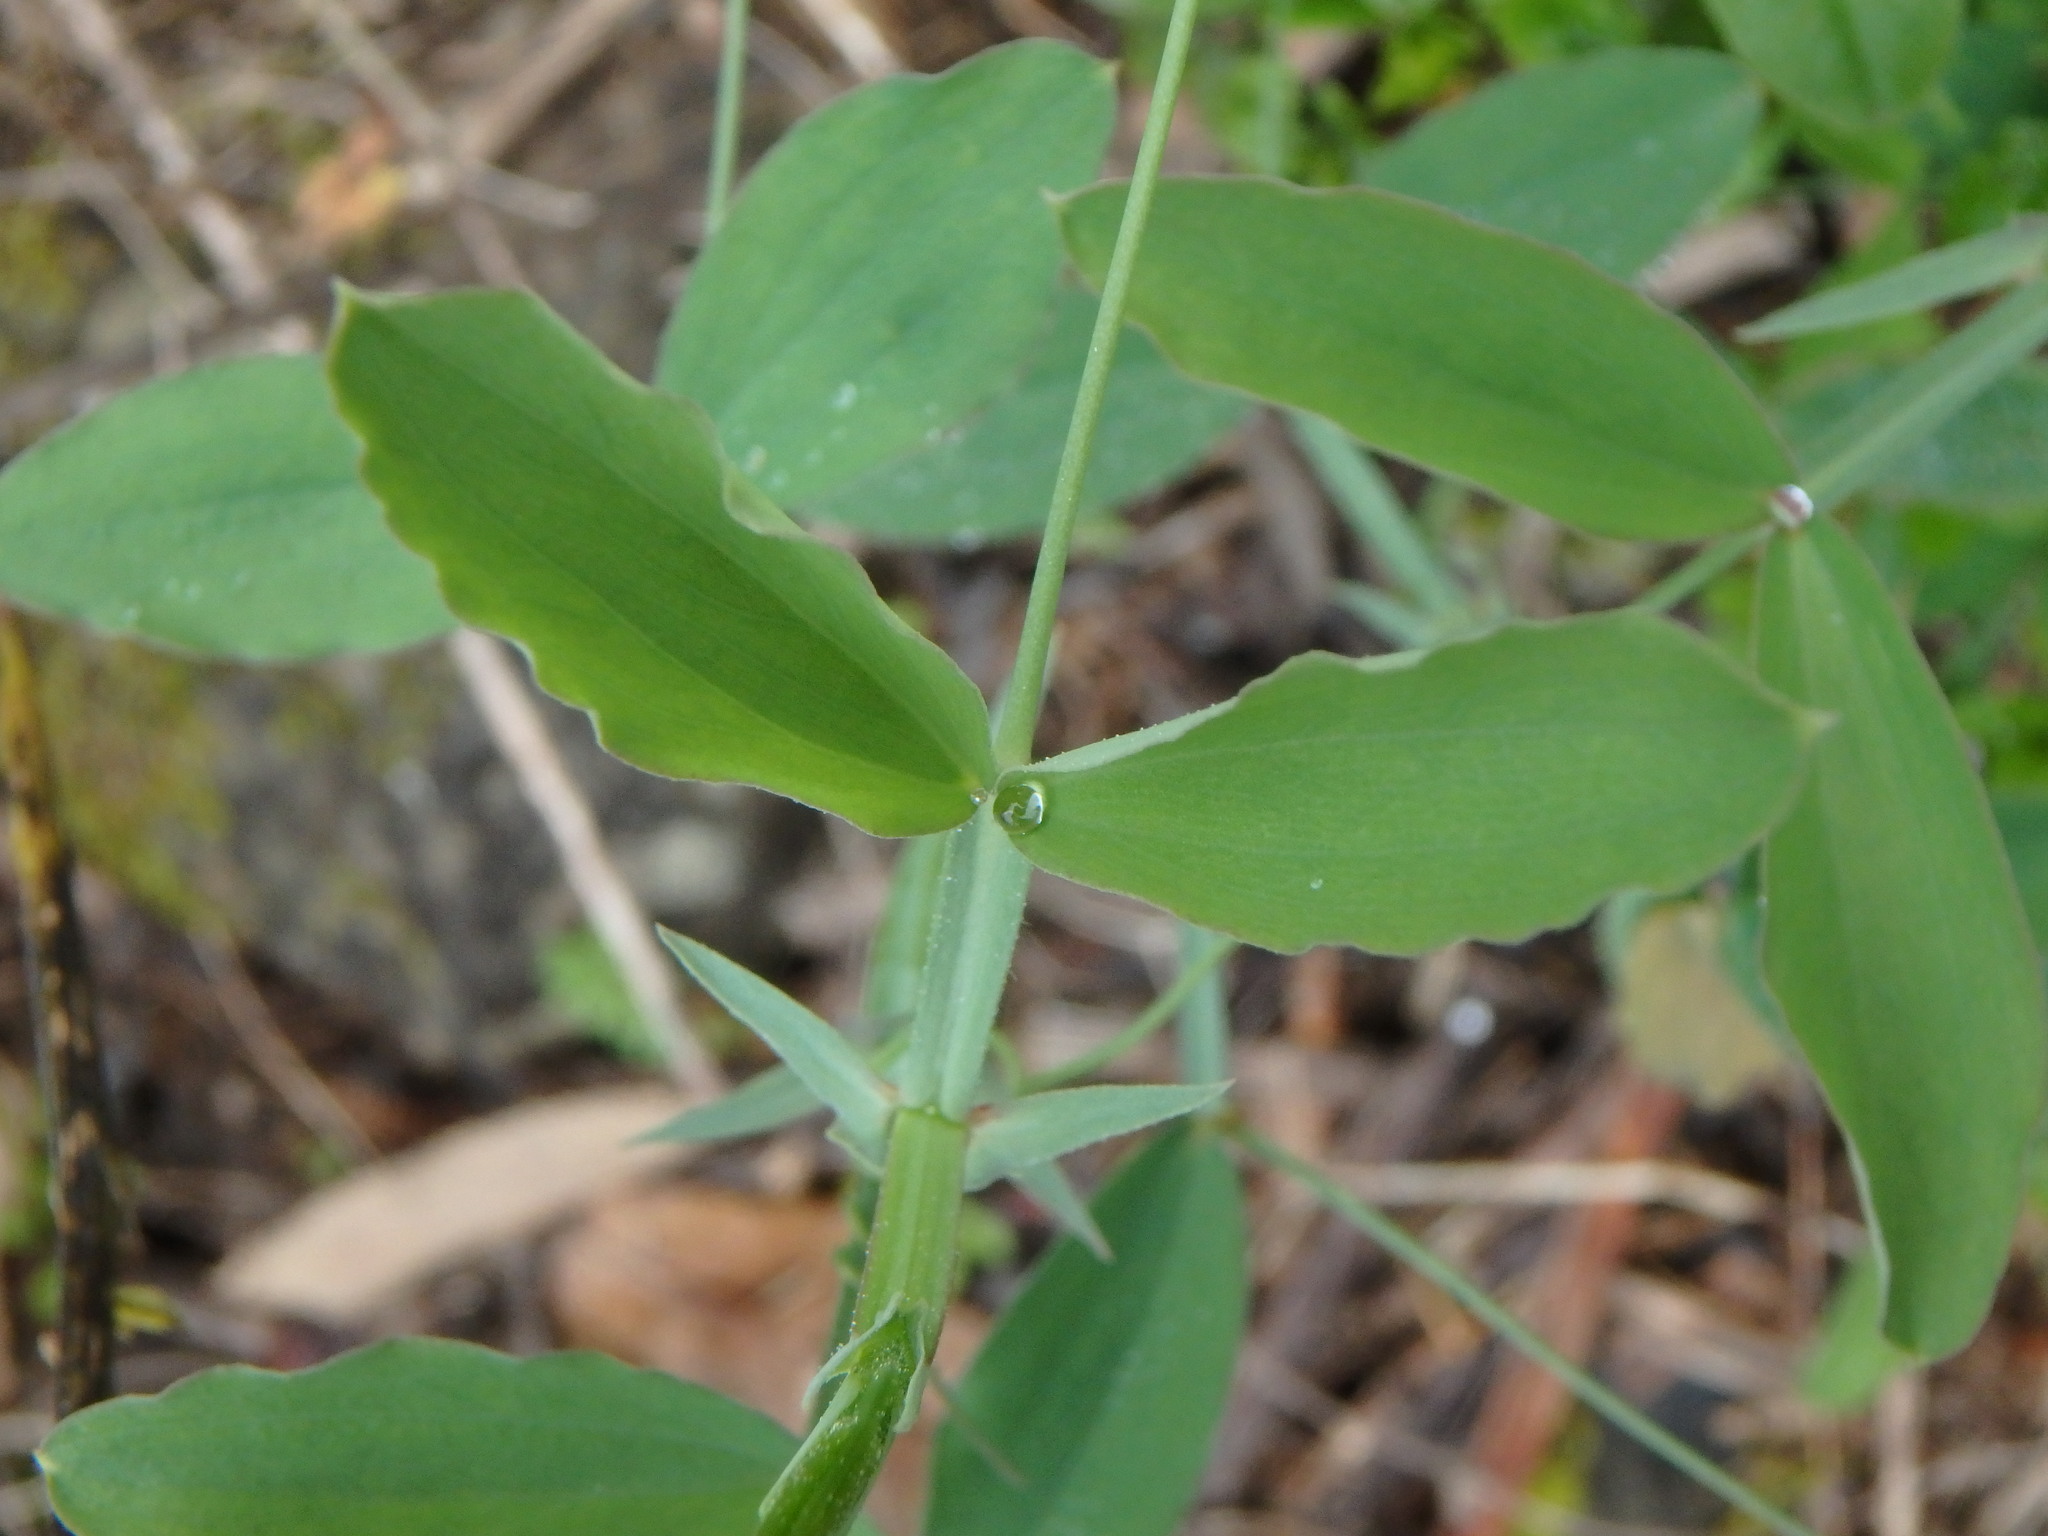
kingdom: Plantae
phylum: Tracheophyta
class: Magnoliopsida
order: Fabales
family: Fabaceae
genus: Lathyrus
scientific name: Lathyrus tingitanus
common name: Tangier pea
